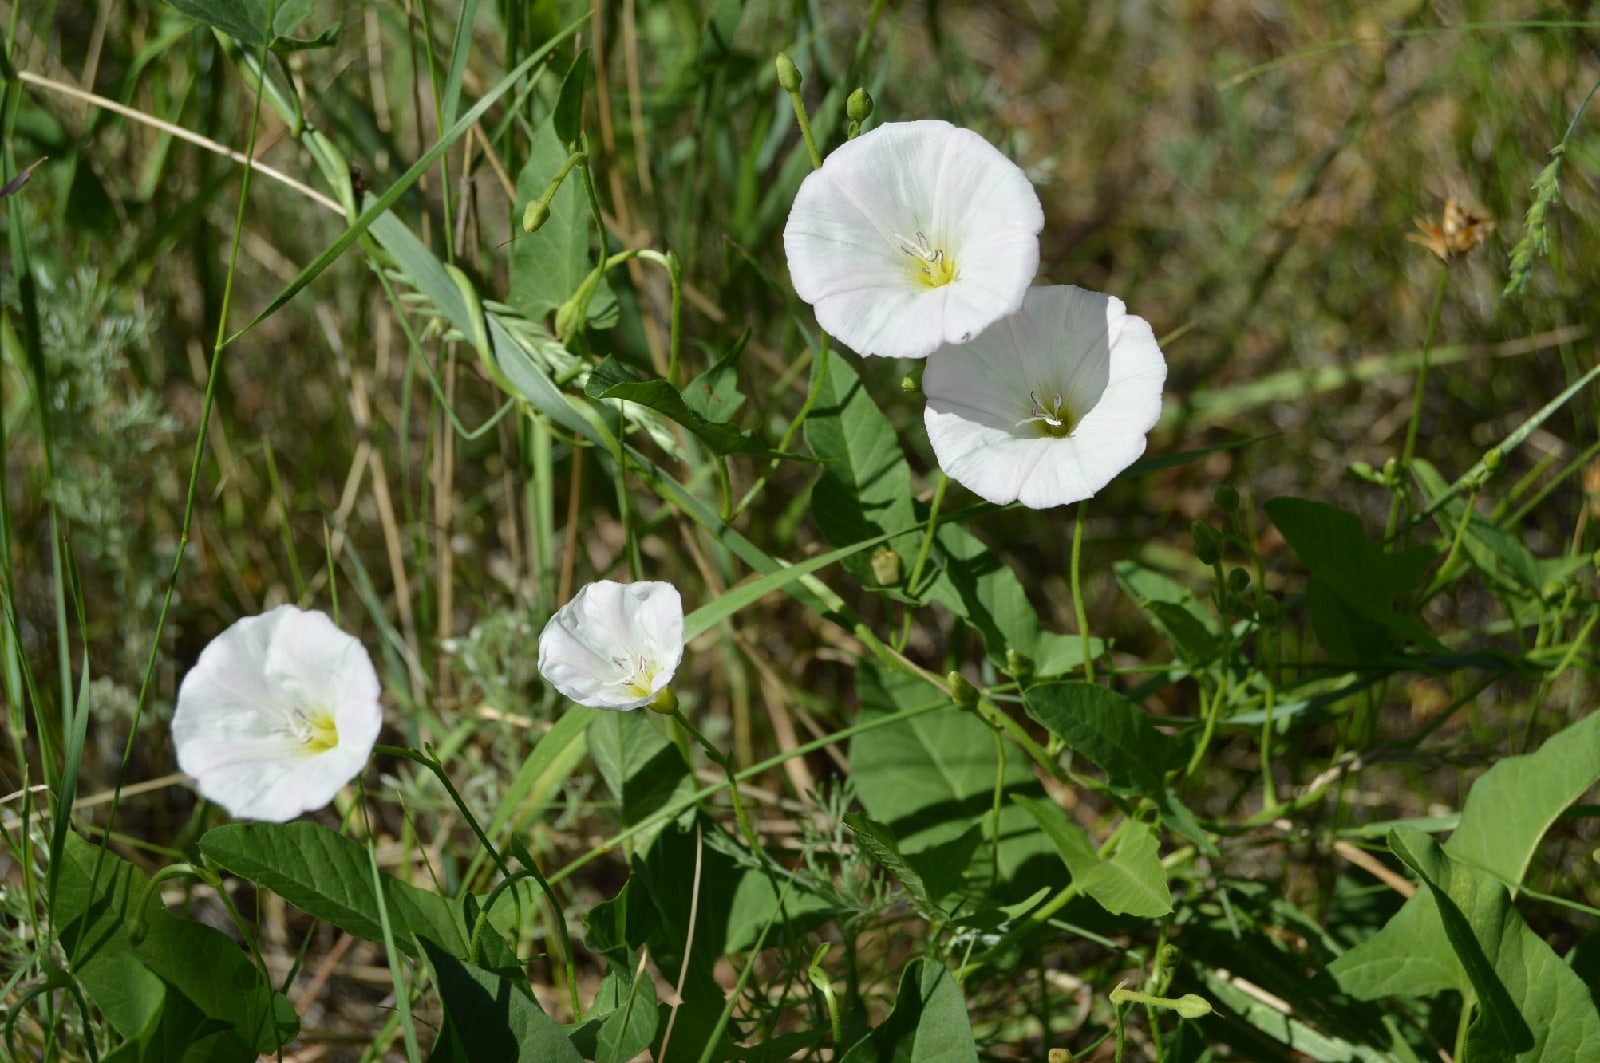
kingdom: Plantae
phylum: Tracheophyta
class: Magnoliopsida
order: Solanales
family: Convolvulaceae
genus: Convolvulus
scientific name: Convolvulus arvensis
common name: Field bindweed
